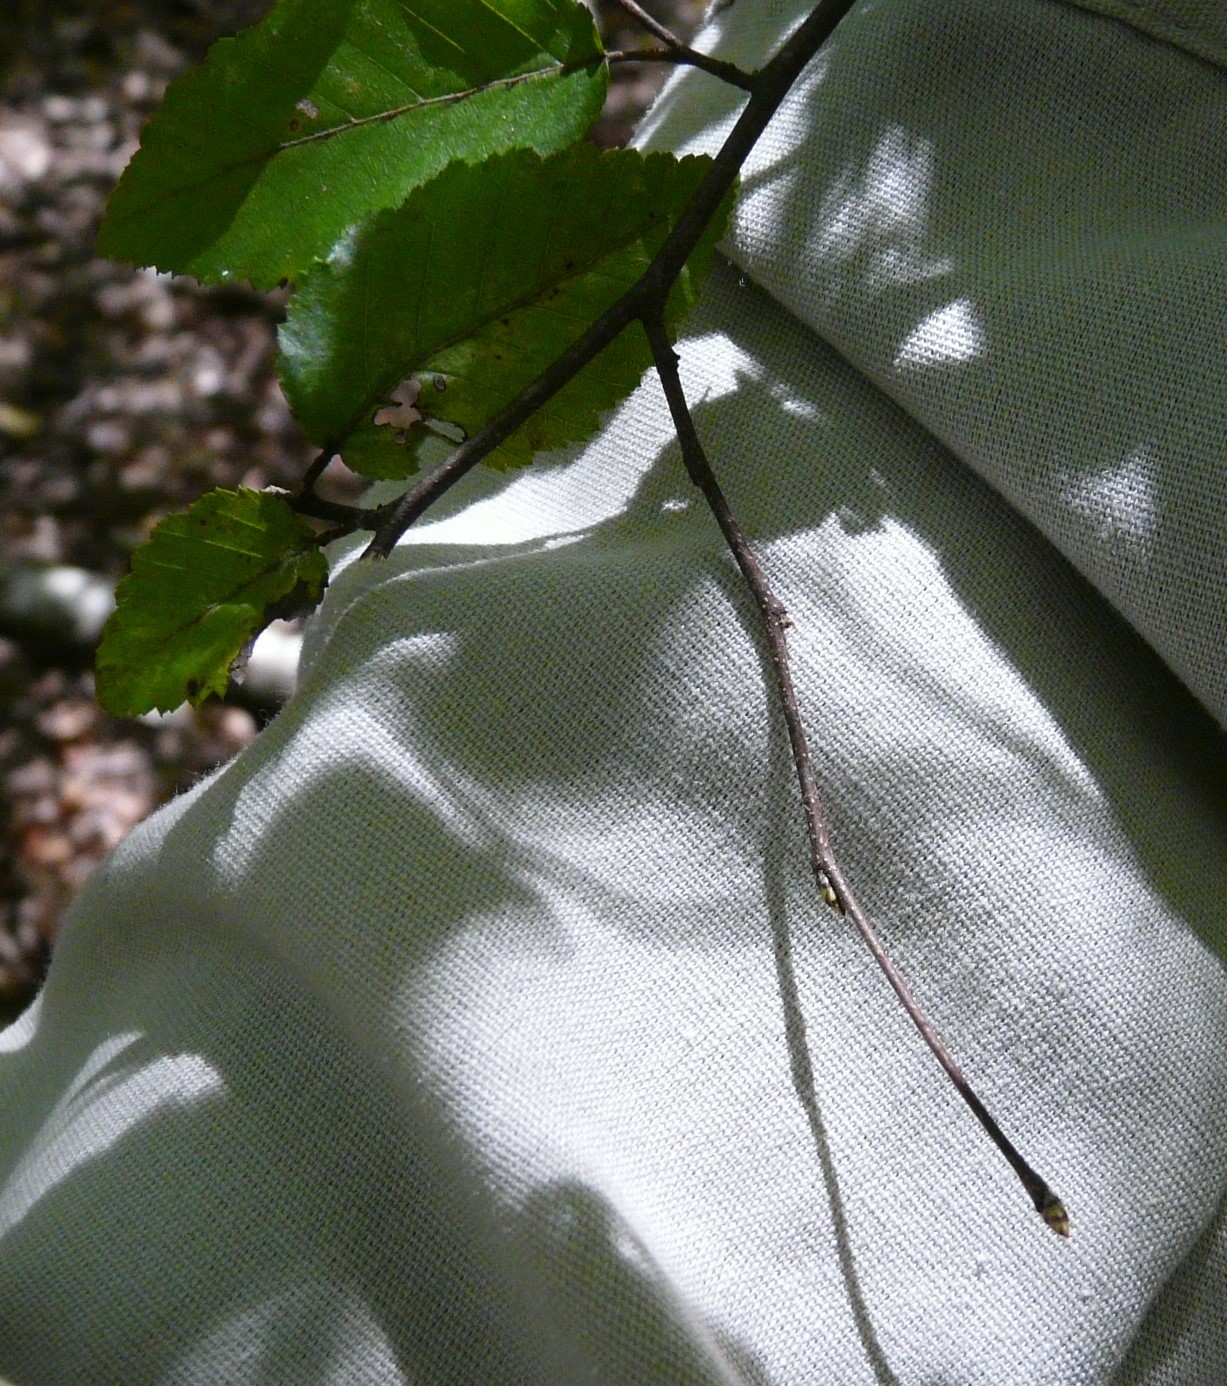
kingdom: Plantae
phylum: Tracheophyta
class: Magnoliopsida
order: Fagales
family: Betulaceae
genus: Carpinus
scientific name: Carpinus caroliniana
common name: American hornbeam
